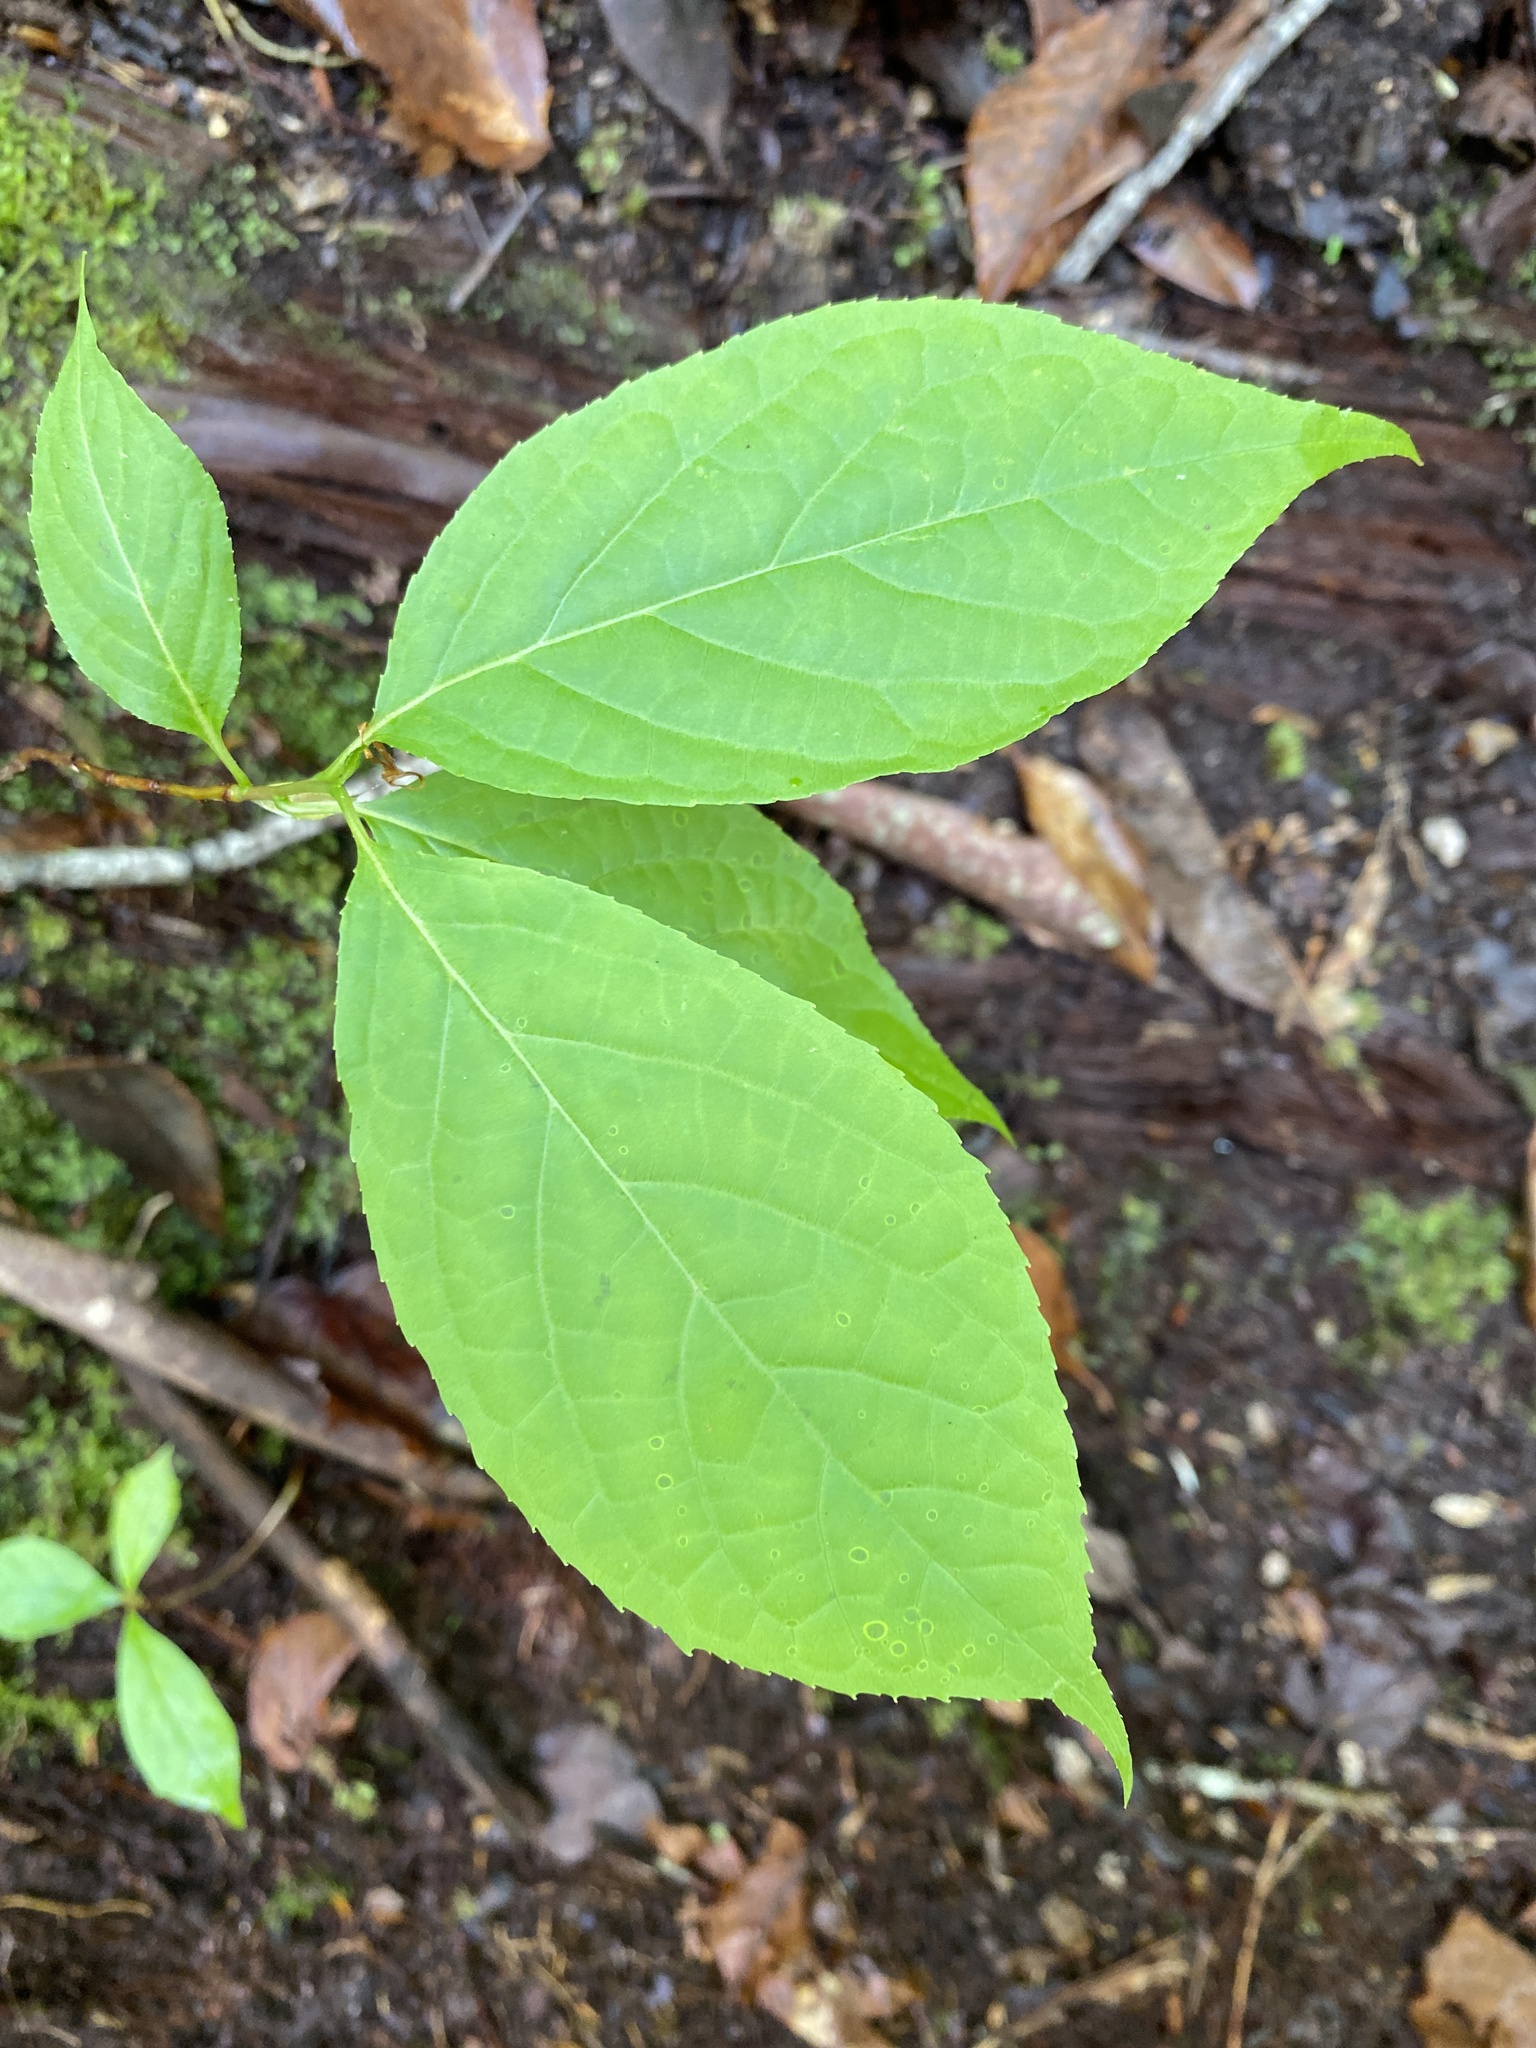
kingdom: Plantae
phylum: Tracheophyta
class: Magnoliopsida
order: Ericales
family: Styracaceae
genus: Halesia
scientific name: Halesia tetraptera
